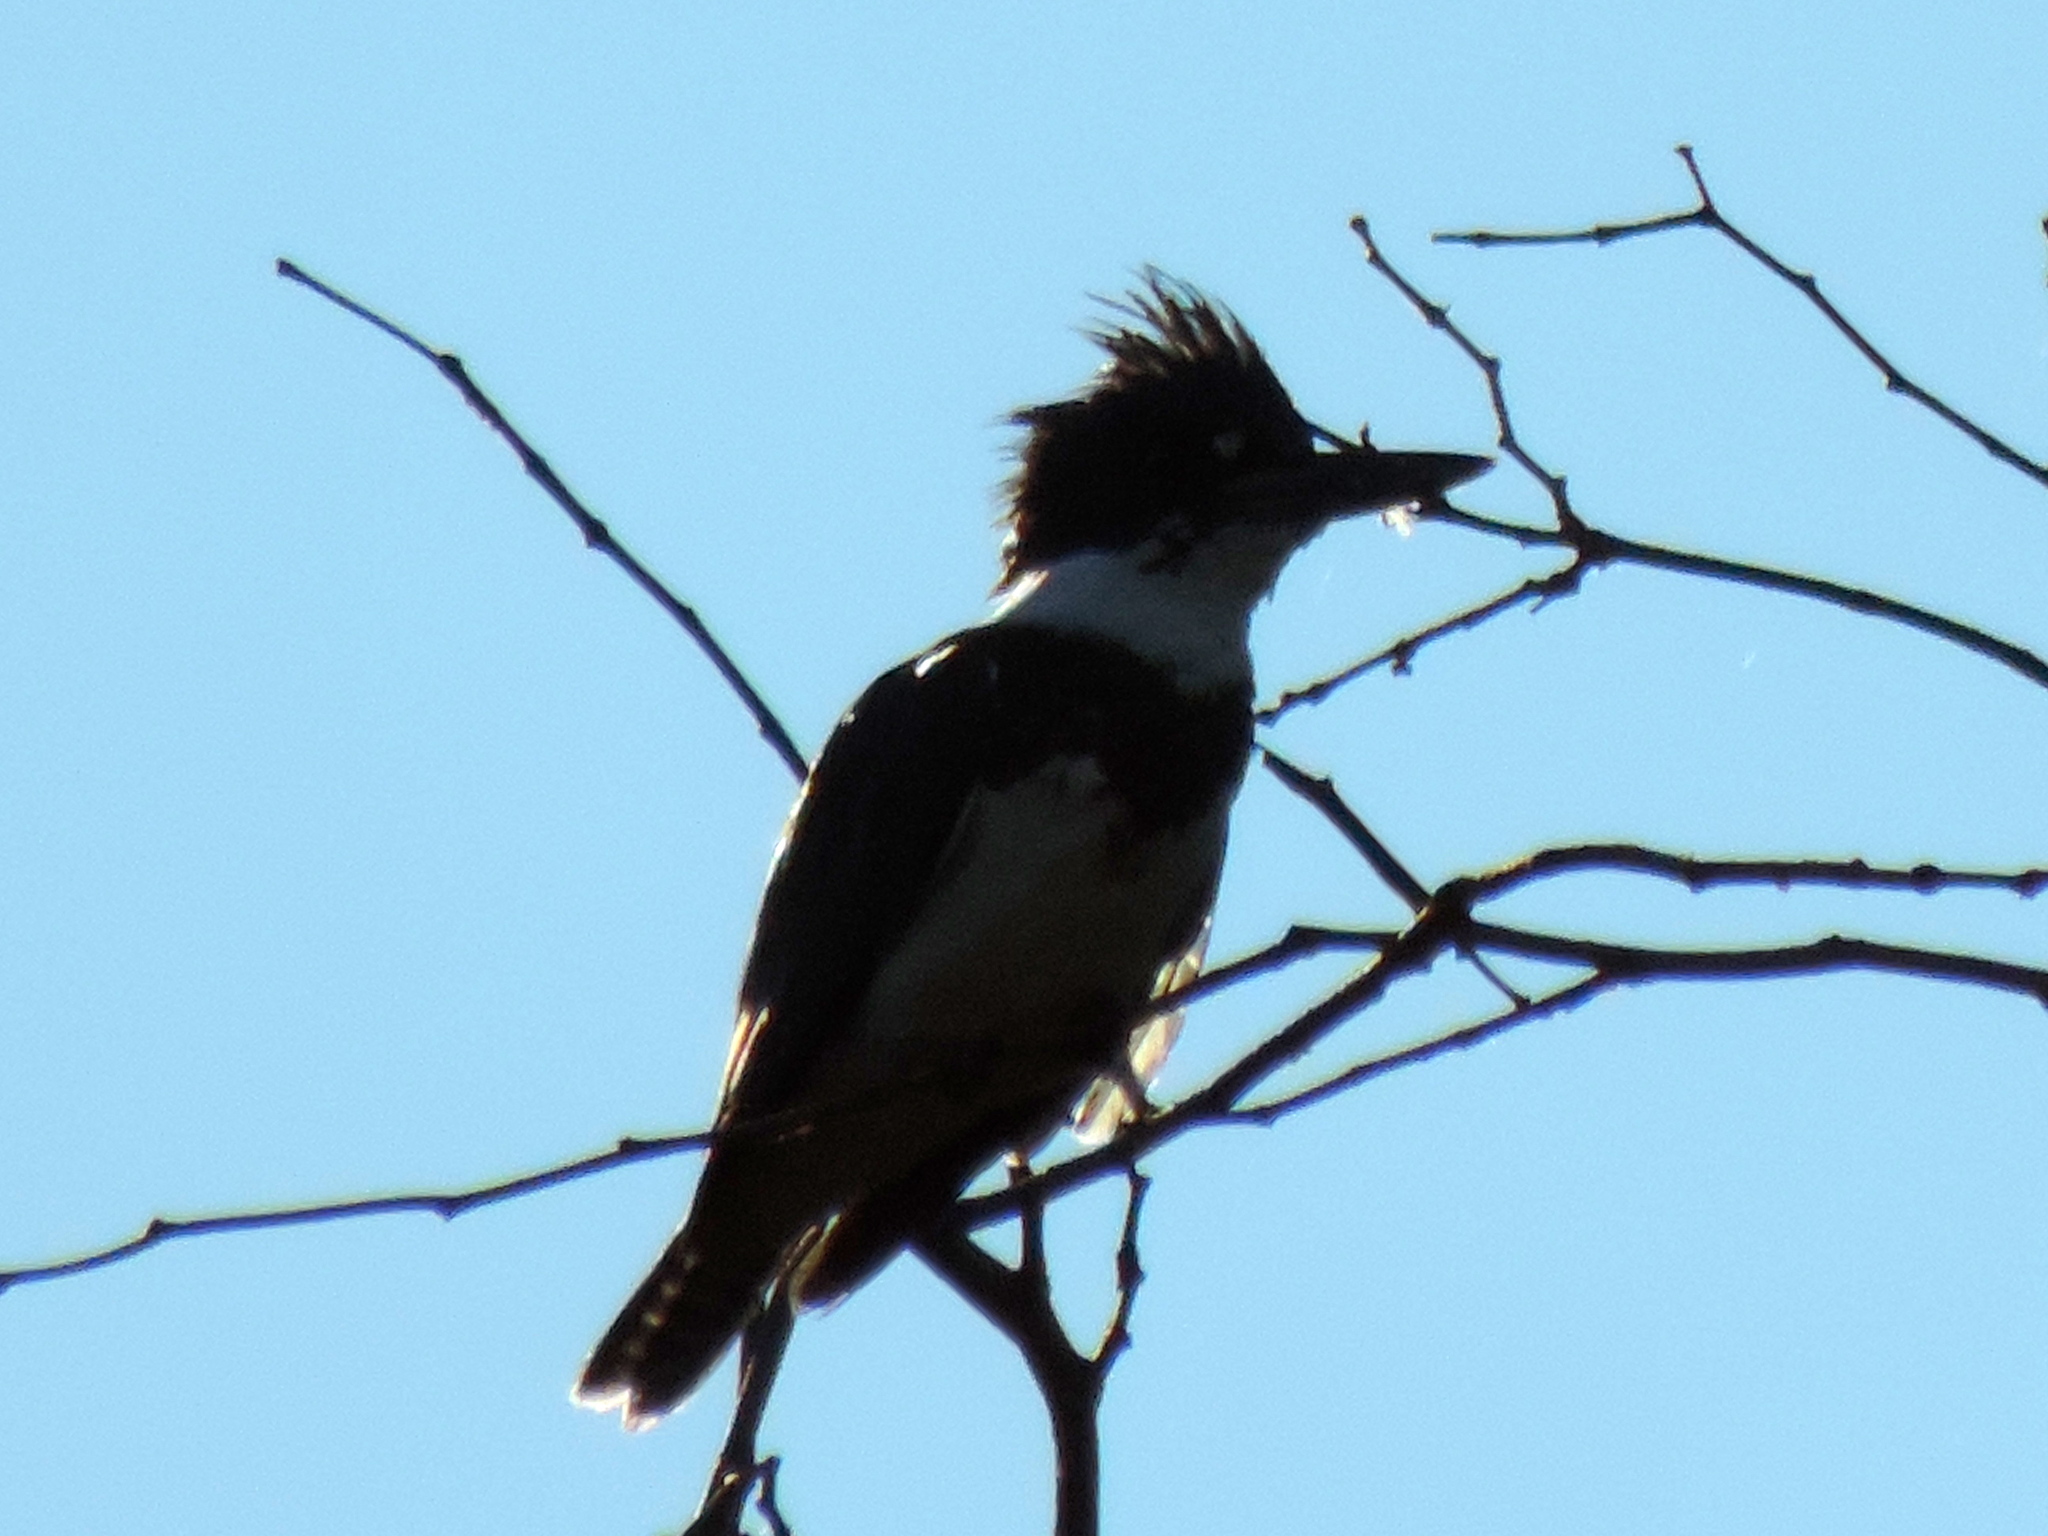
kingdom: Animalia
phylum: Chordata
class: Aves
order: Coraciiformes
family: Alcedinidae
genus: Megaceryle
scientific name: Megaceryle alcyon
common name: Belted kingfisher
